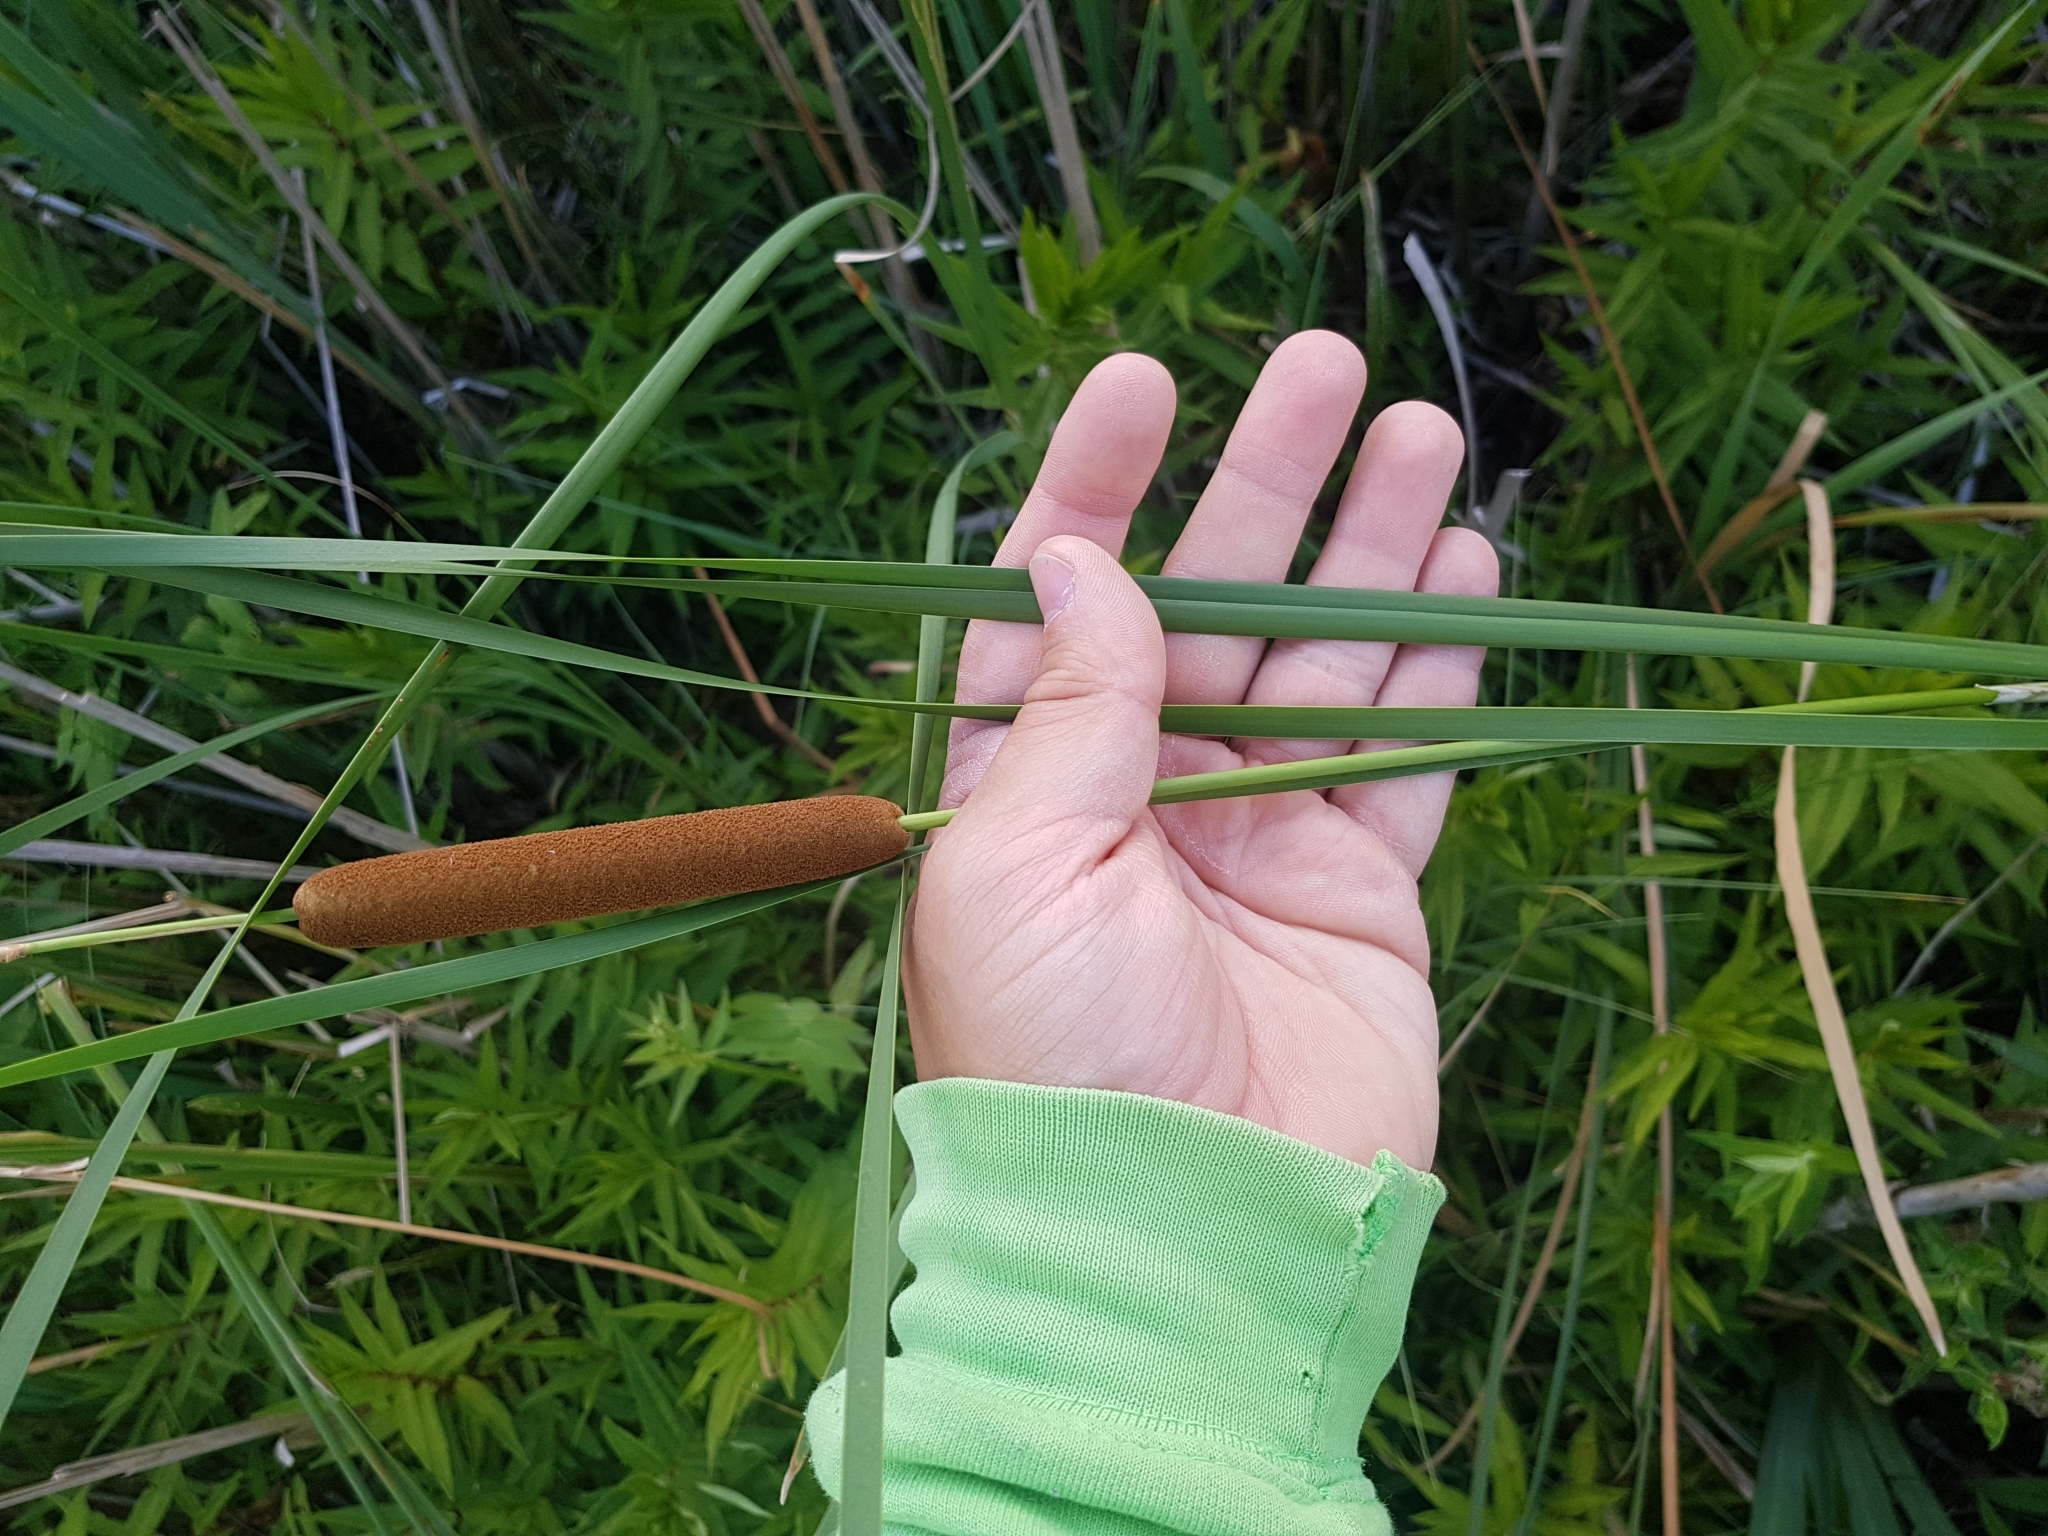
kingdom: Plantae
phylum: Tracheophyta
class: Liliopsida
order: Poales
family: Typhaceae
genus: Typha
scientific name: Typha angustifolia
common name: Lesser bulrush
